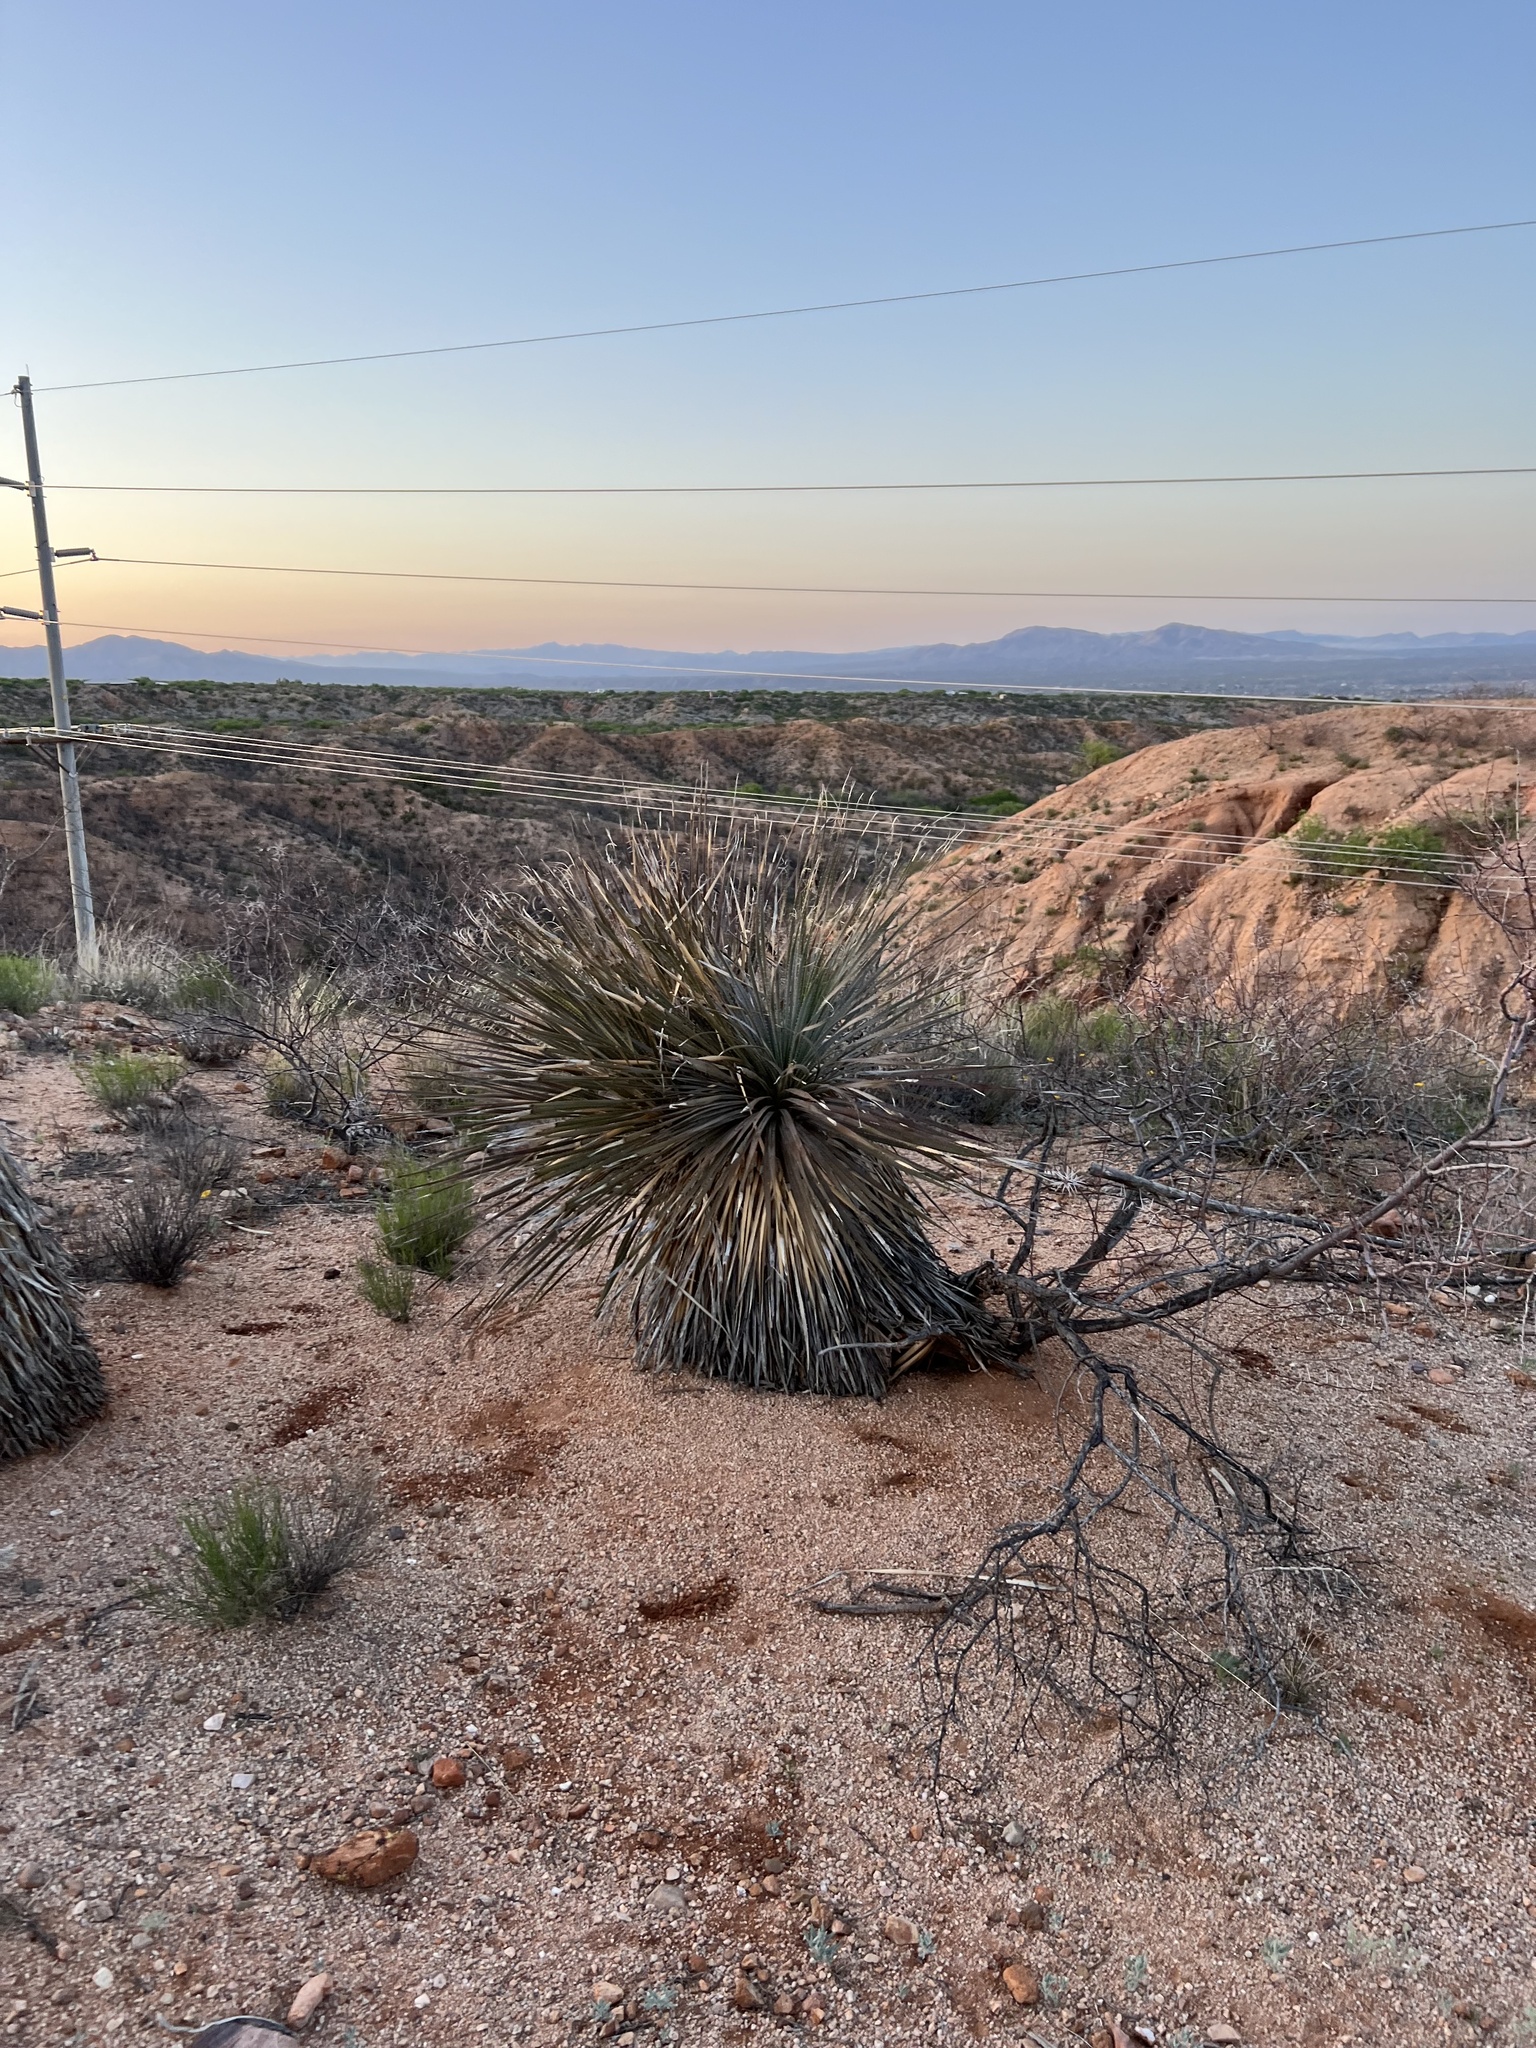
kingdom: Plantae
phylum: Tracheophyta
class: Liliopsida
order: Asparagales
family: Asparagaceae
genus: Yucca
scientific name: Yucca elata
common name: Palmella
